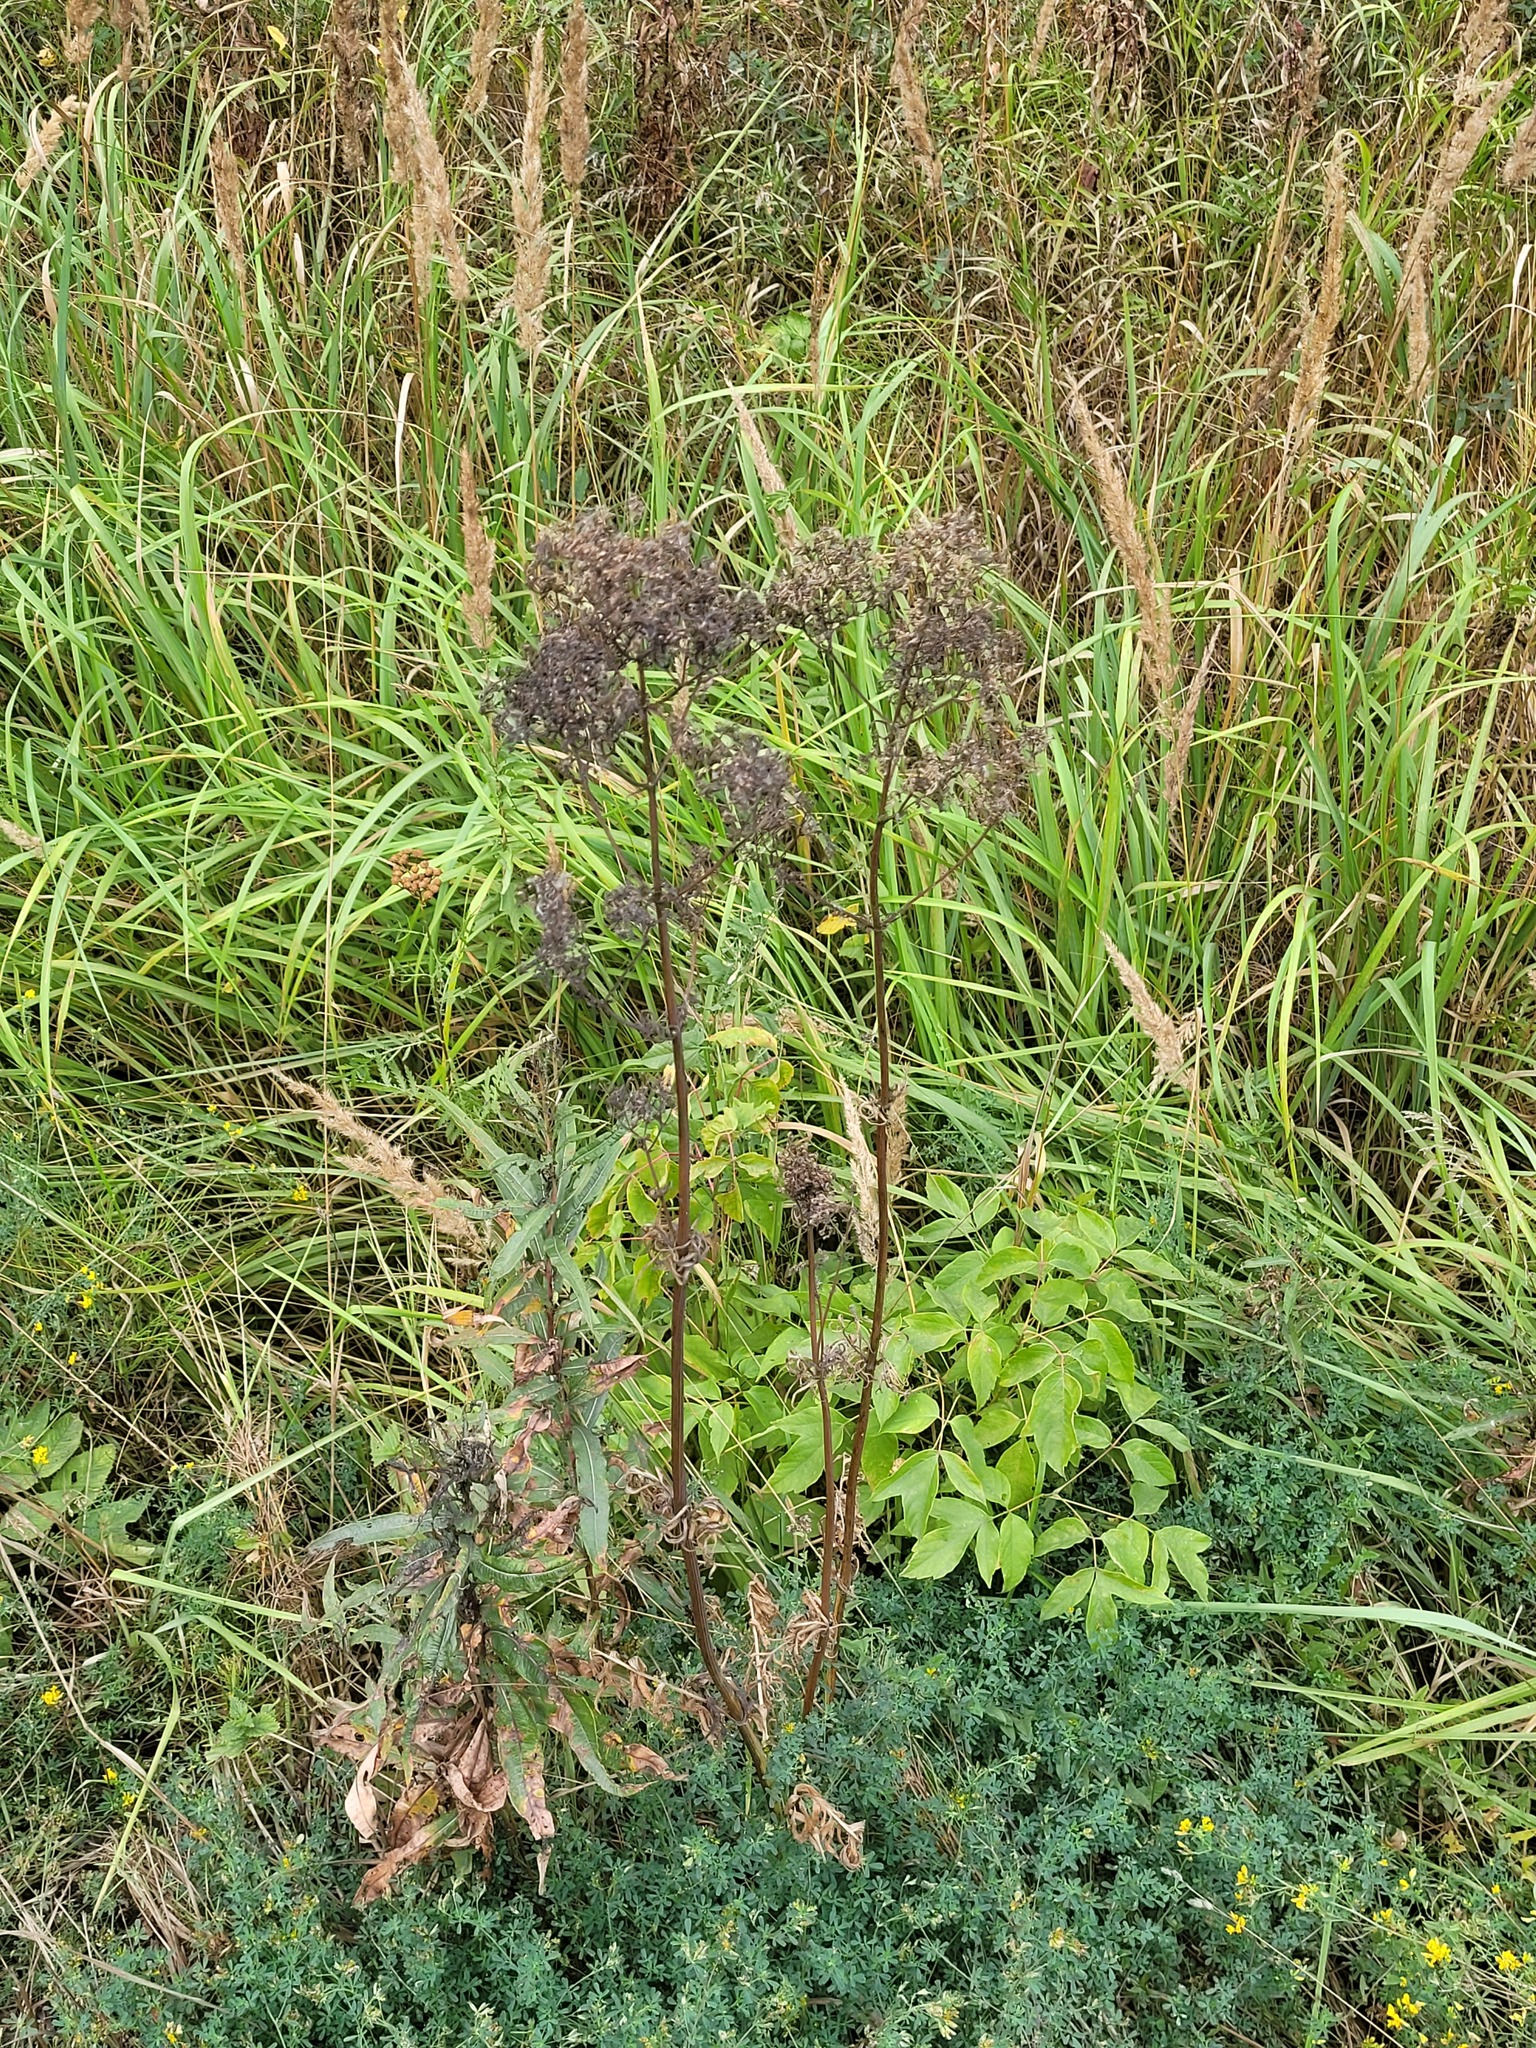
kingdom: Plantae
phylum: Tracheophyta
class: Magnoliopsida
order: Dipsacales
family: Caprifoliaceae
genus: Valeriana
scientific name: Valeriana officinalis
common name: Common valerian
